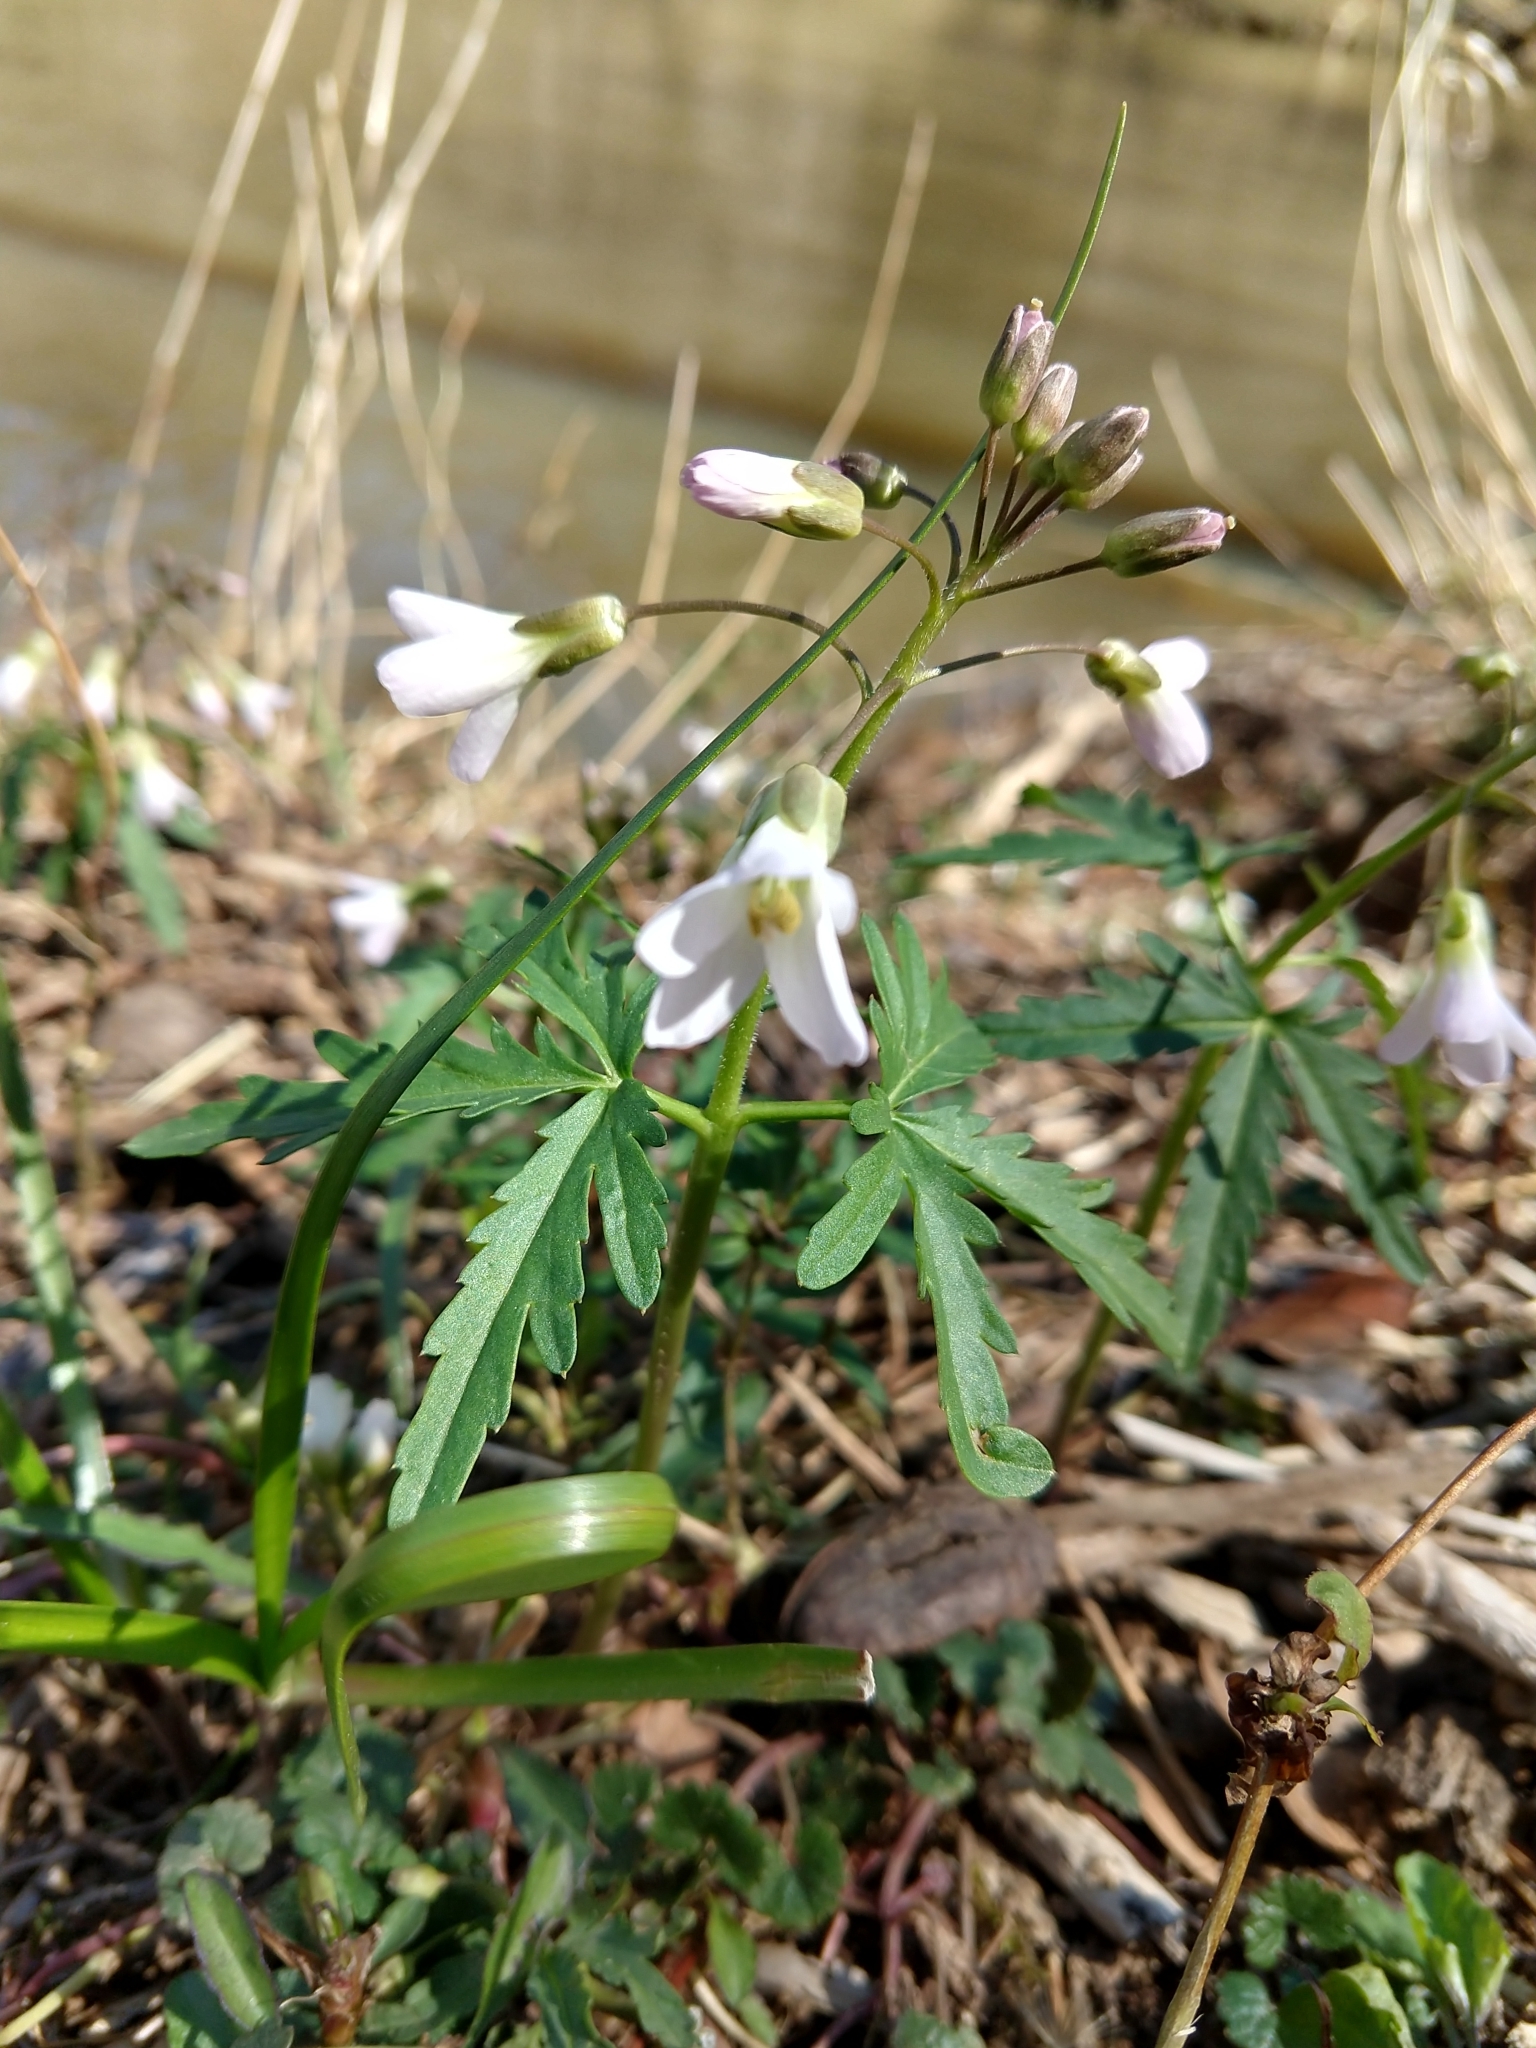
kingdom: Plantae
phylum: Tracheophyta
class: Magnoliopsida
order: Brassicales
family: Brassicaceae
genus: Cardamine
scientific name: Cardamine concatenata
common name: Cut-leaf toothcup
